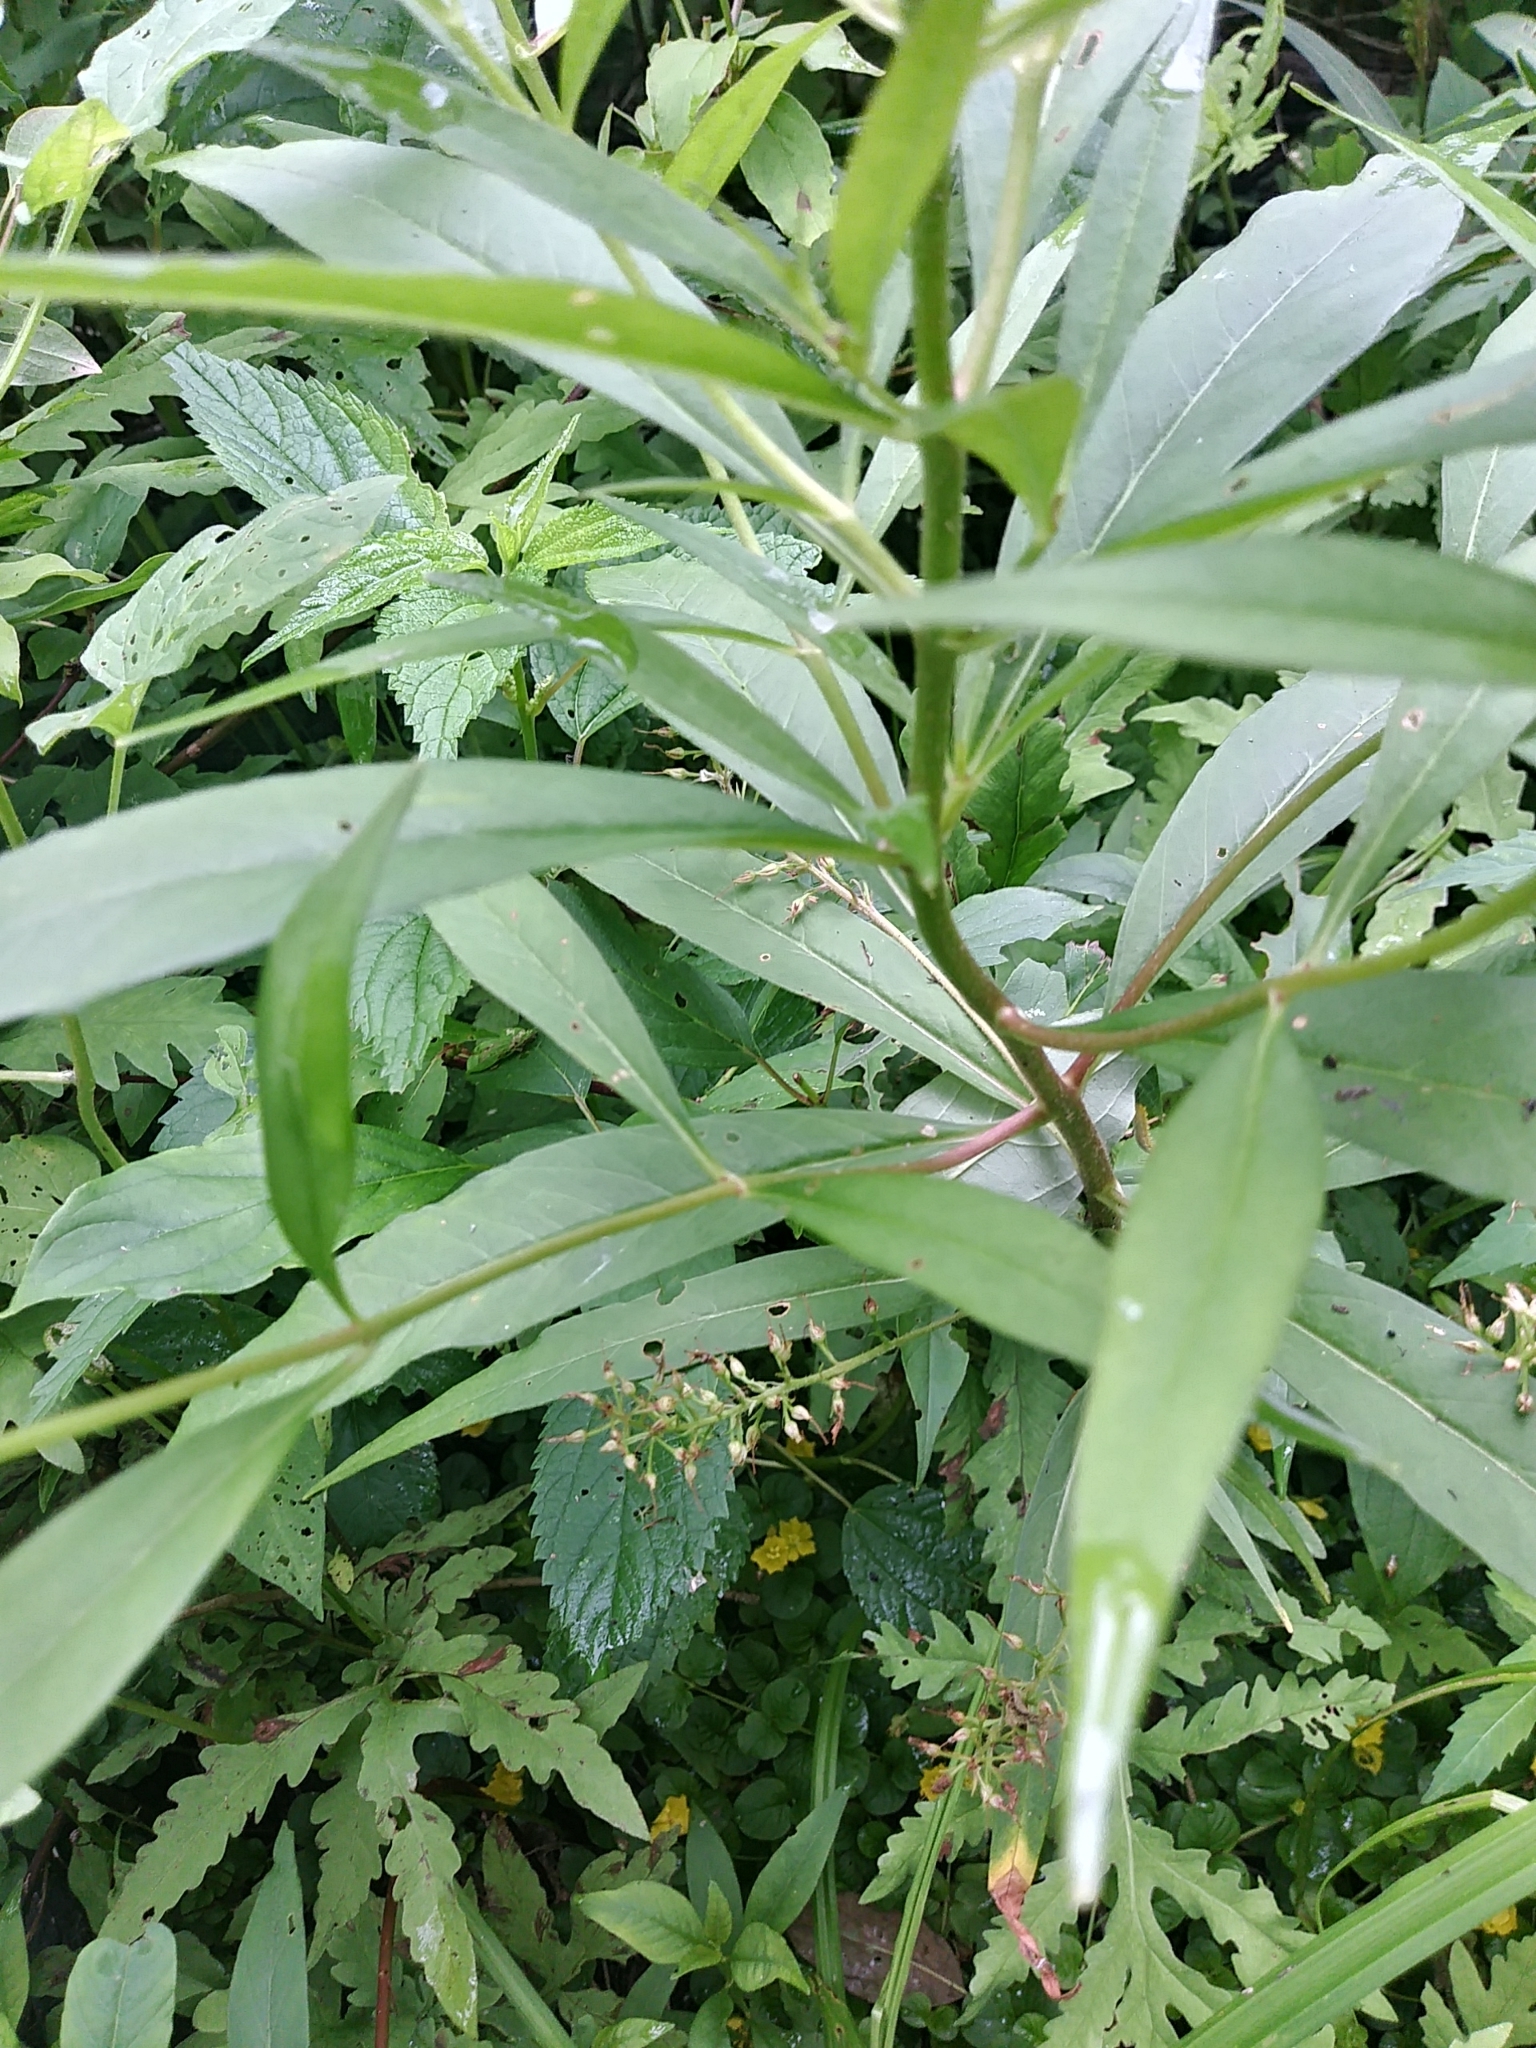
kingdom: Plantae
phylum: Tracheophyta
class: Magnoliopsida
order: Ericales
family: Primulaceae
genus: Lysimachia
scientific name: Lysimachia terrestris
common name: Lake loosestrife
